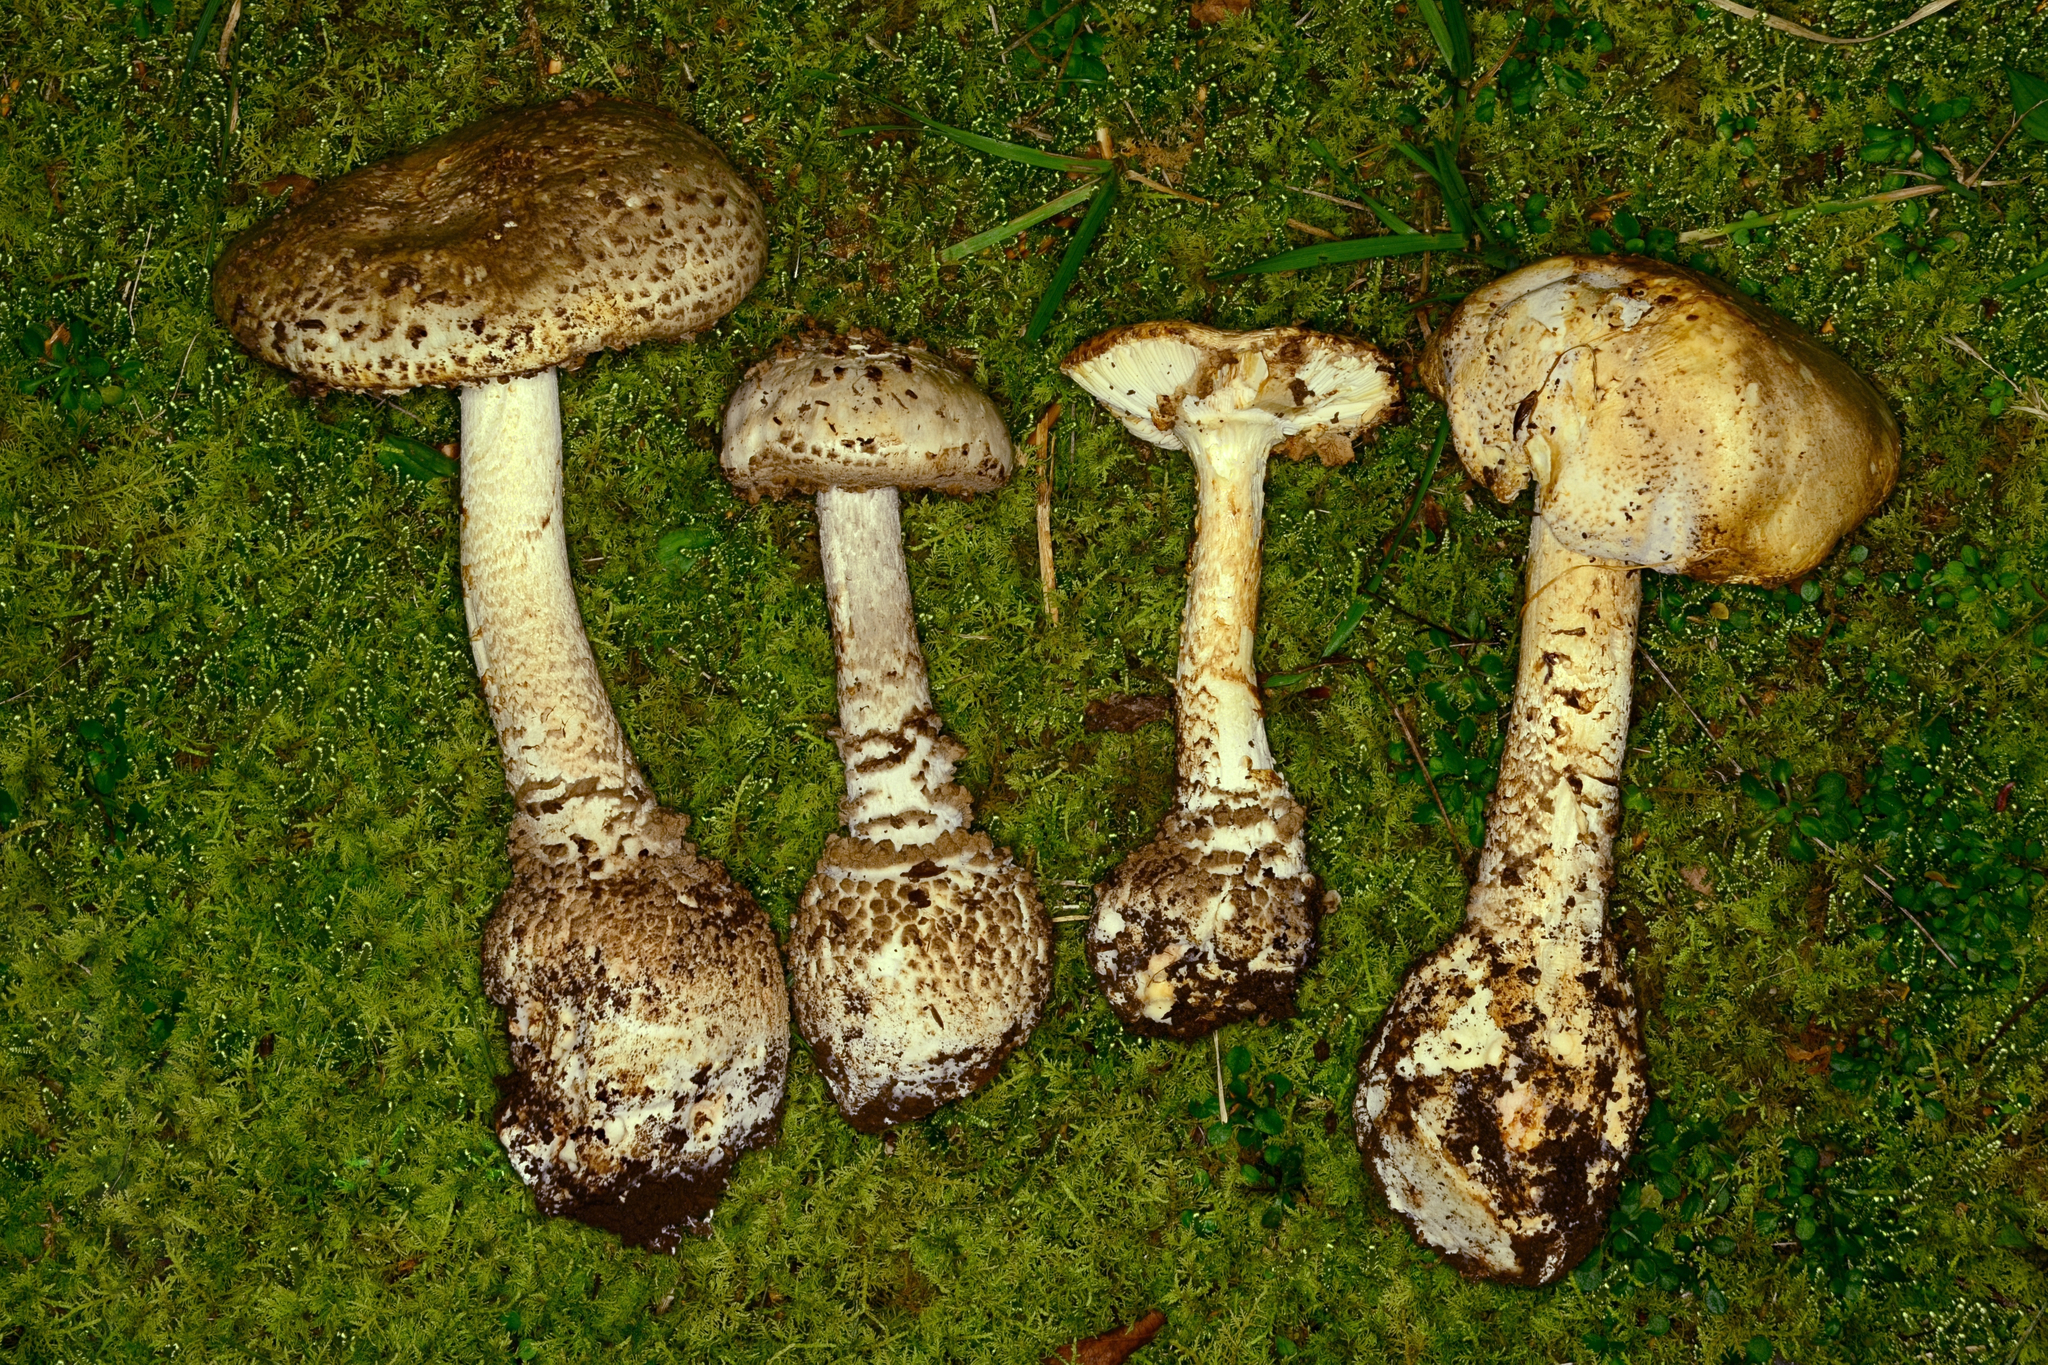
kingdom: Fungi
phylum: Basidiomycota
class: Agaricomycetes
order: Agaricales
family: Amanitaceae
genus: Amanita
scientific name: Amanita atkinsoniana
